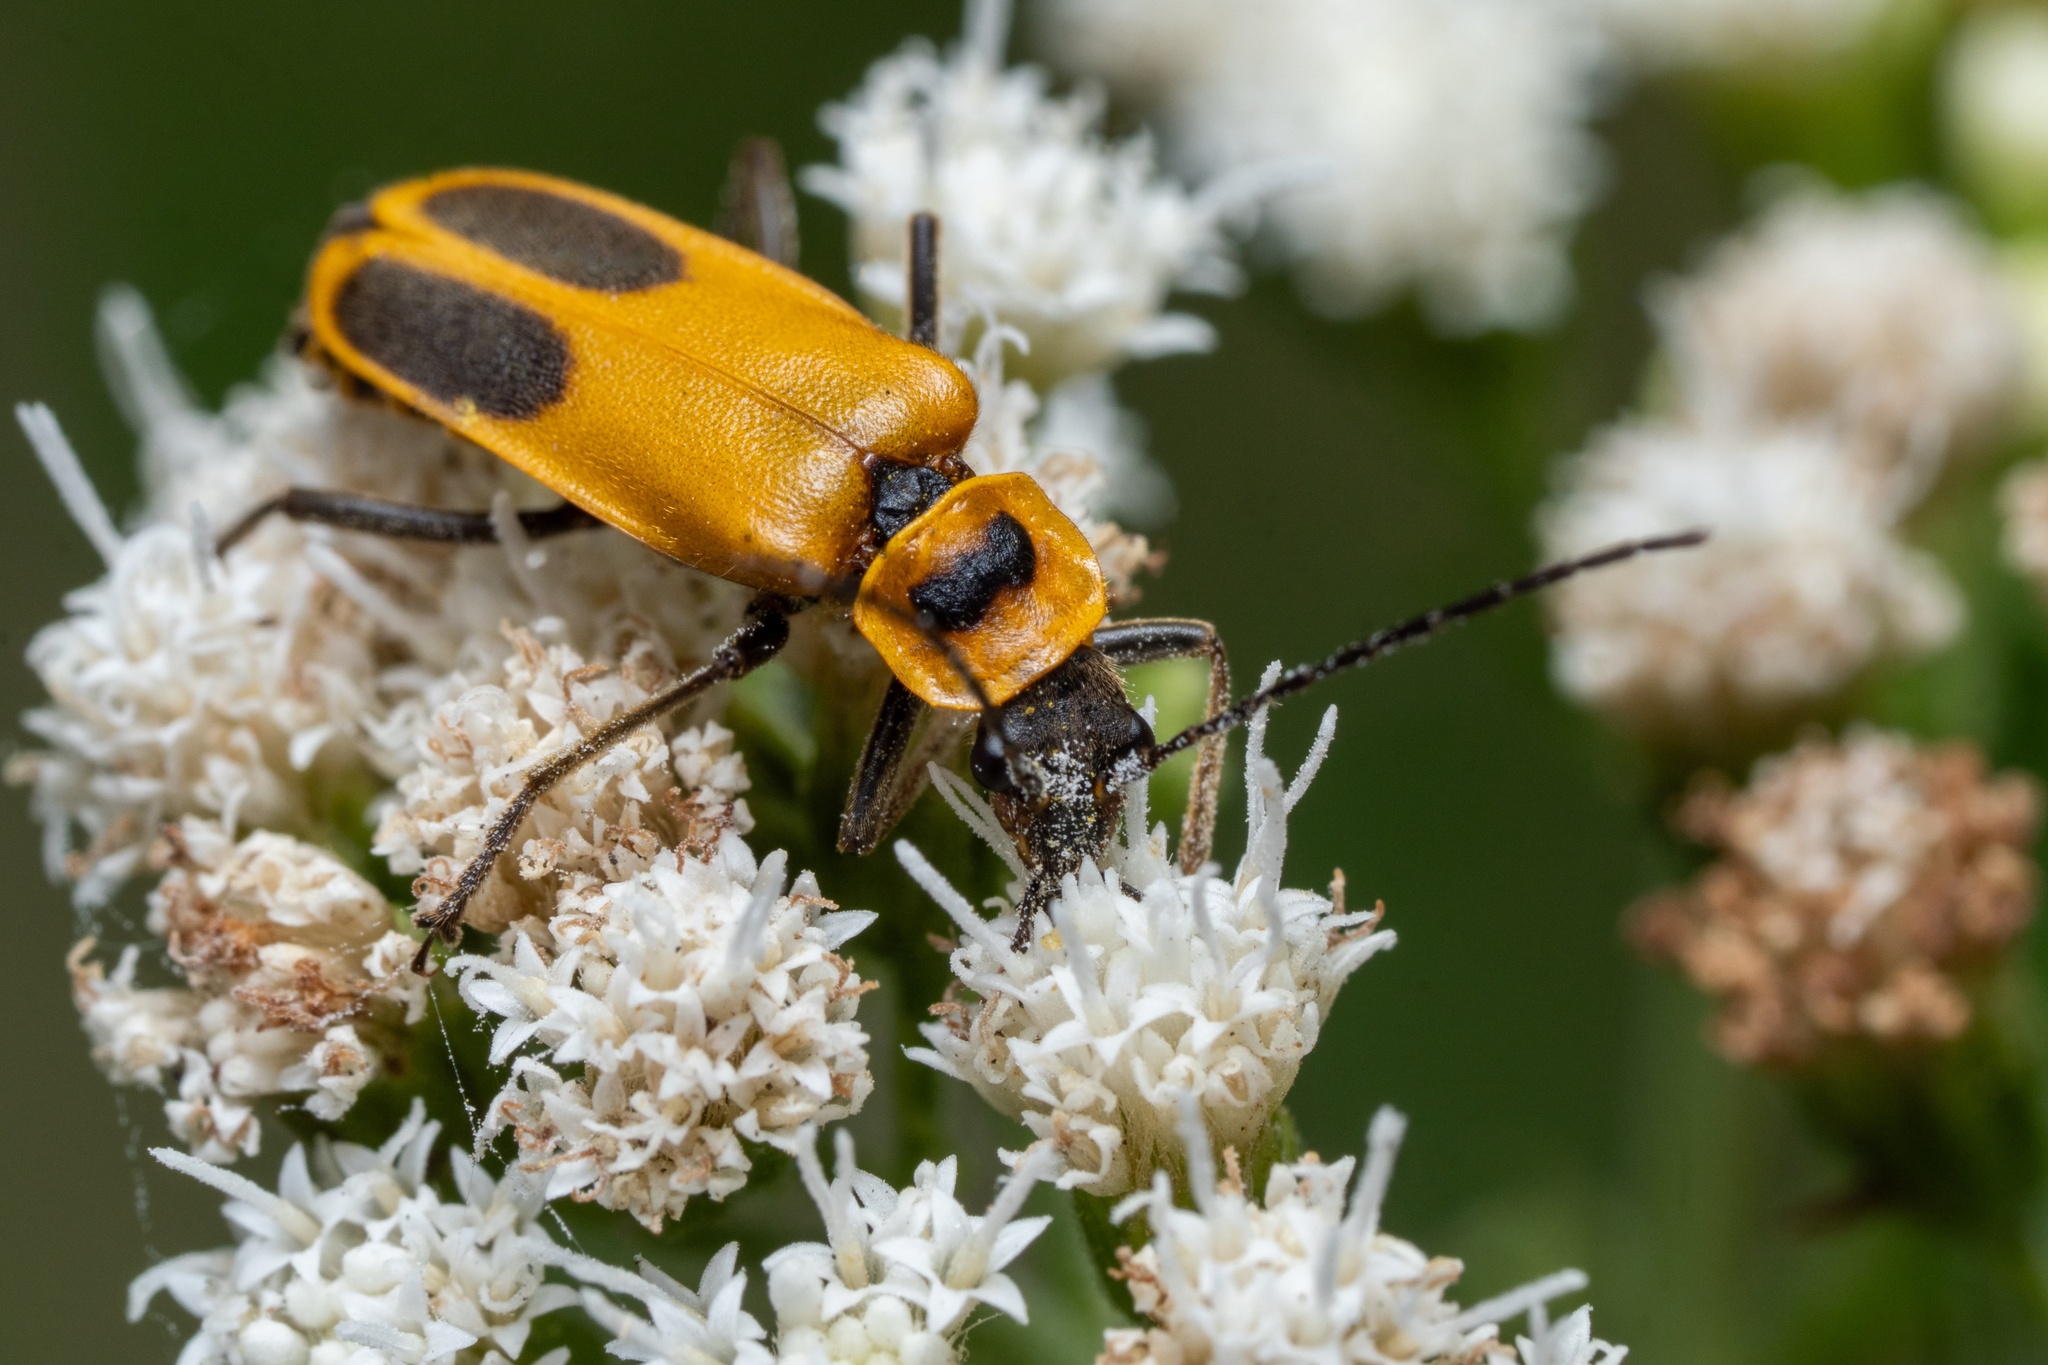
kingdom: Animalia
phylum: Arthropoda
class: Insecta
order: Coleoptera
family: Cantharidae
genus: Chauliognathus
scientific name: Chauliognathus pensylvanicus
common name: Goldenrod soldier beetle
